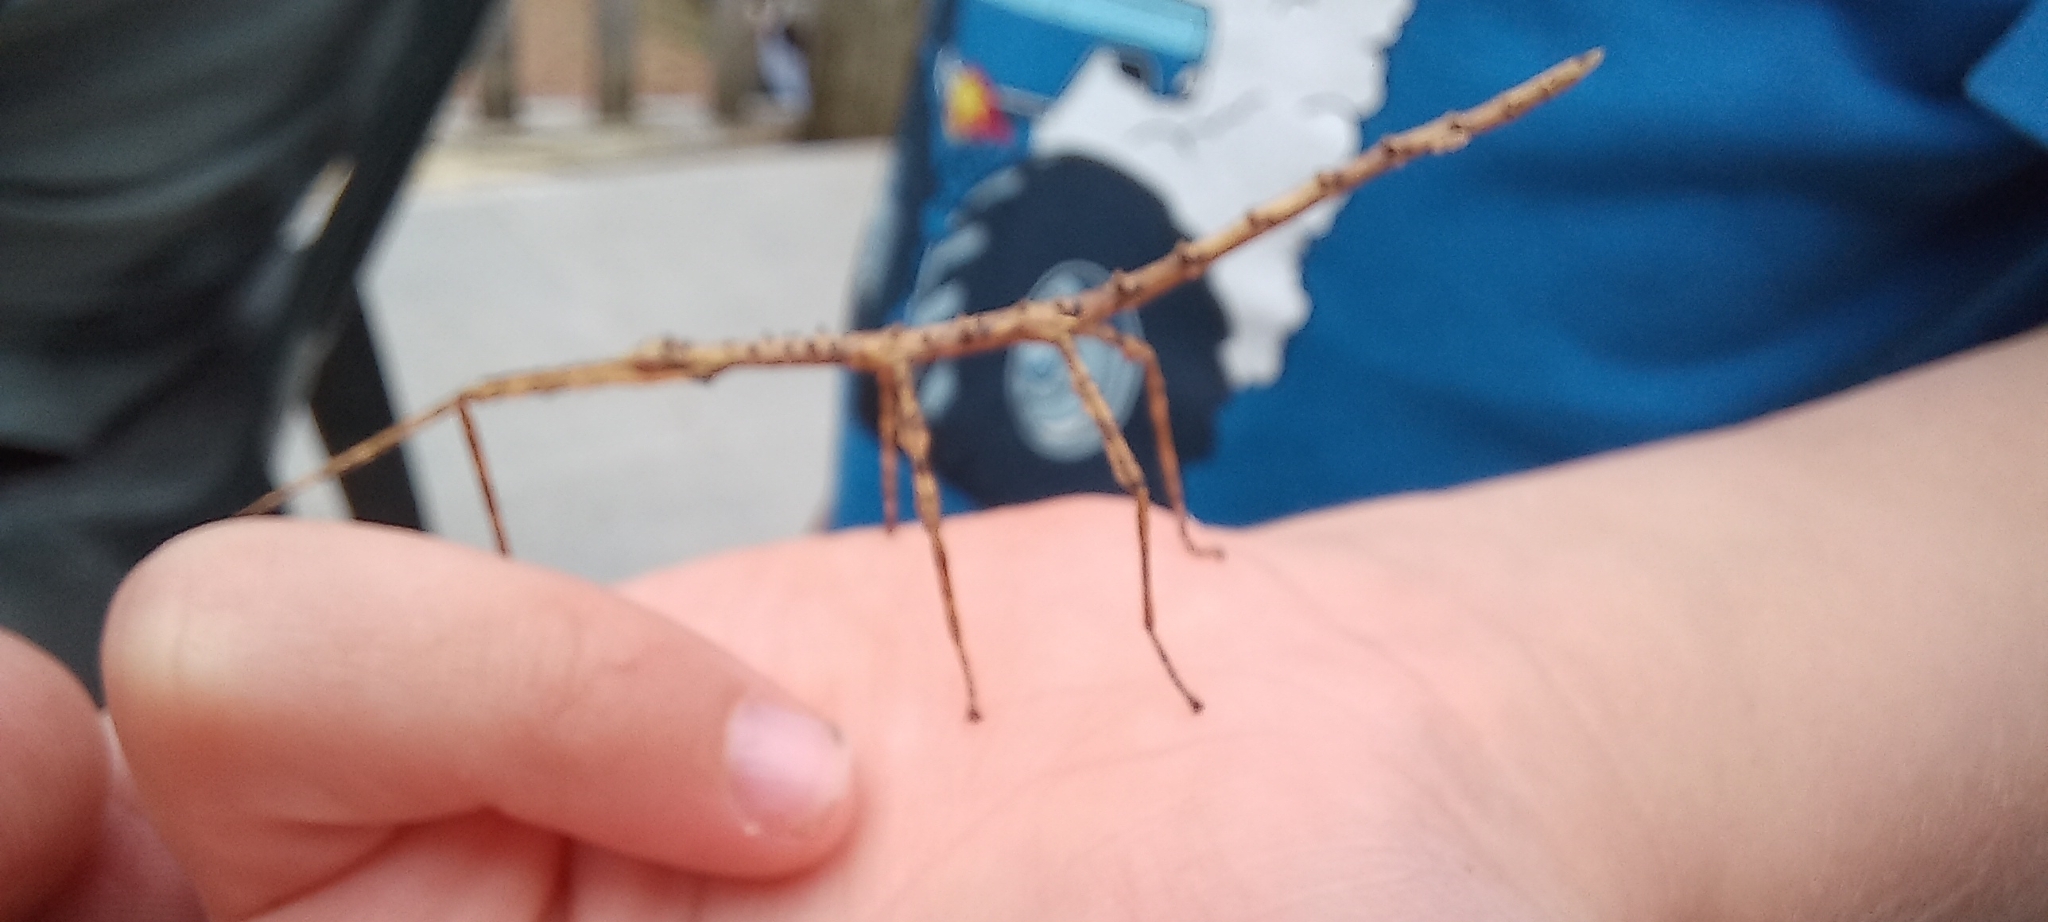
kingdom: Animalia
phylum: Arthropoda
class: Insecta
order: Phasmida
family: Phasmatidae
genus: Acanthoxyla
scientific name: Acanthoxyla prasina
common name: Black-spined stick insect
